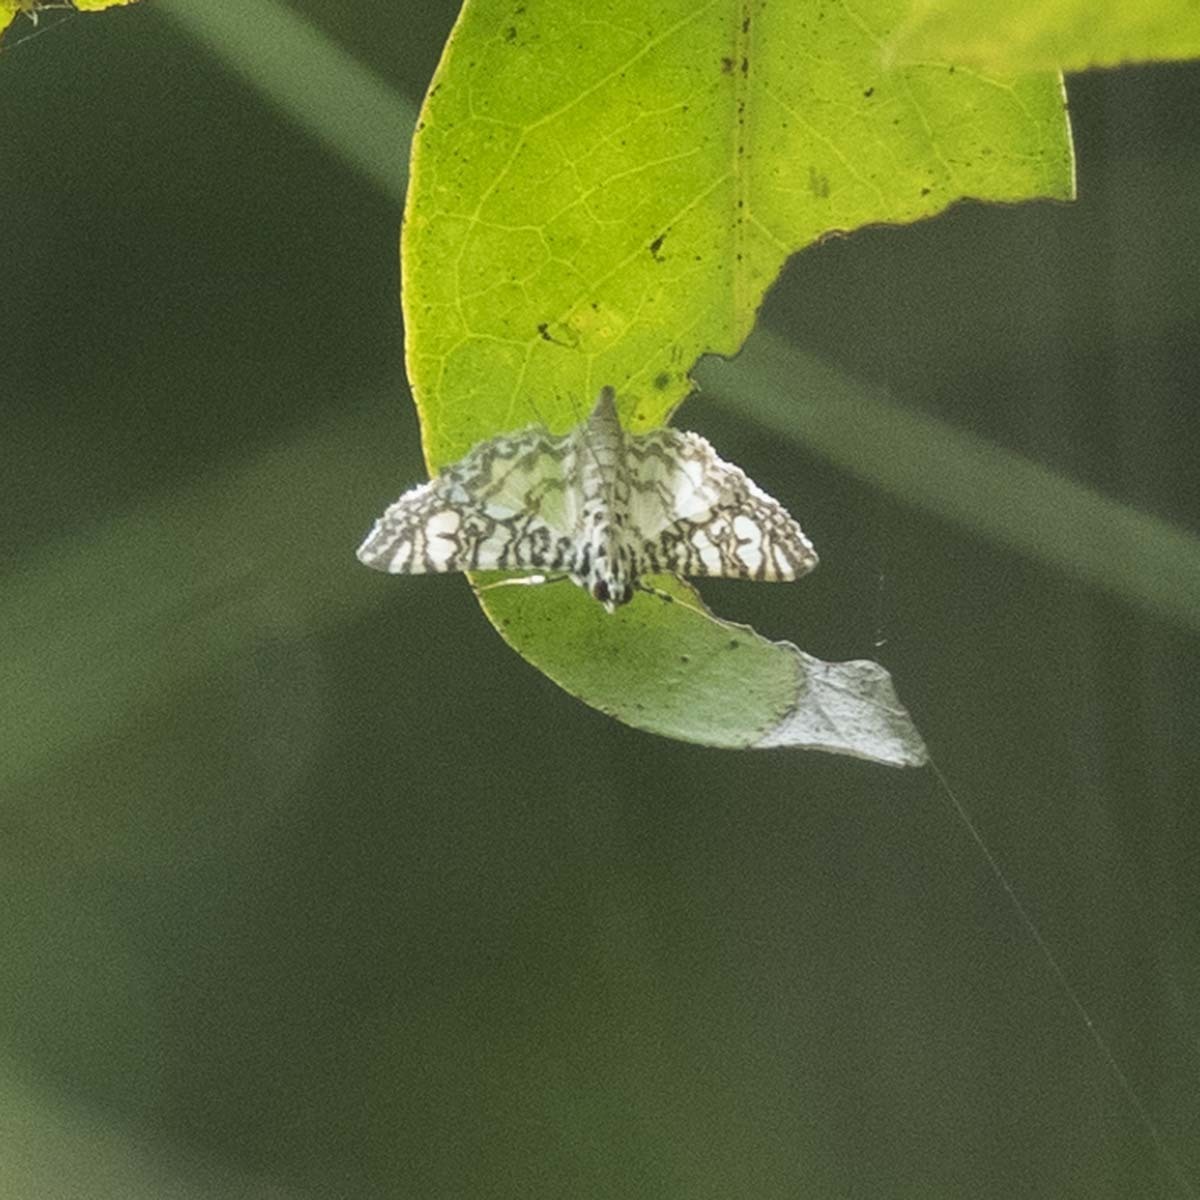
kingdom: Animalia
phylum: Arthropoda
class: Insecta
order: Lepidoptera
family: Crambidae
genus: Glyphodes
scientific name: Glyphodes onychinalis
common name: Swan plant moth
